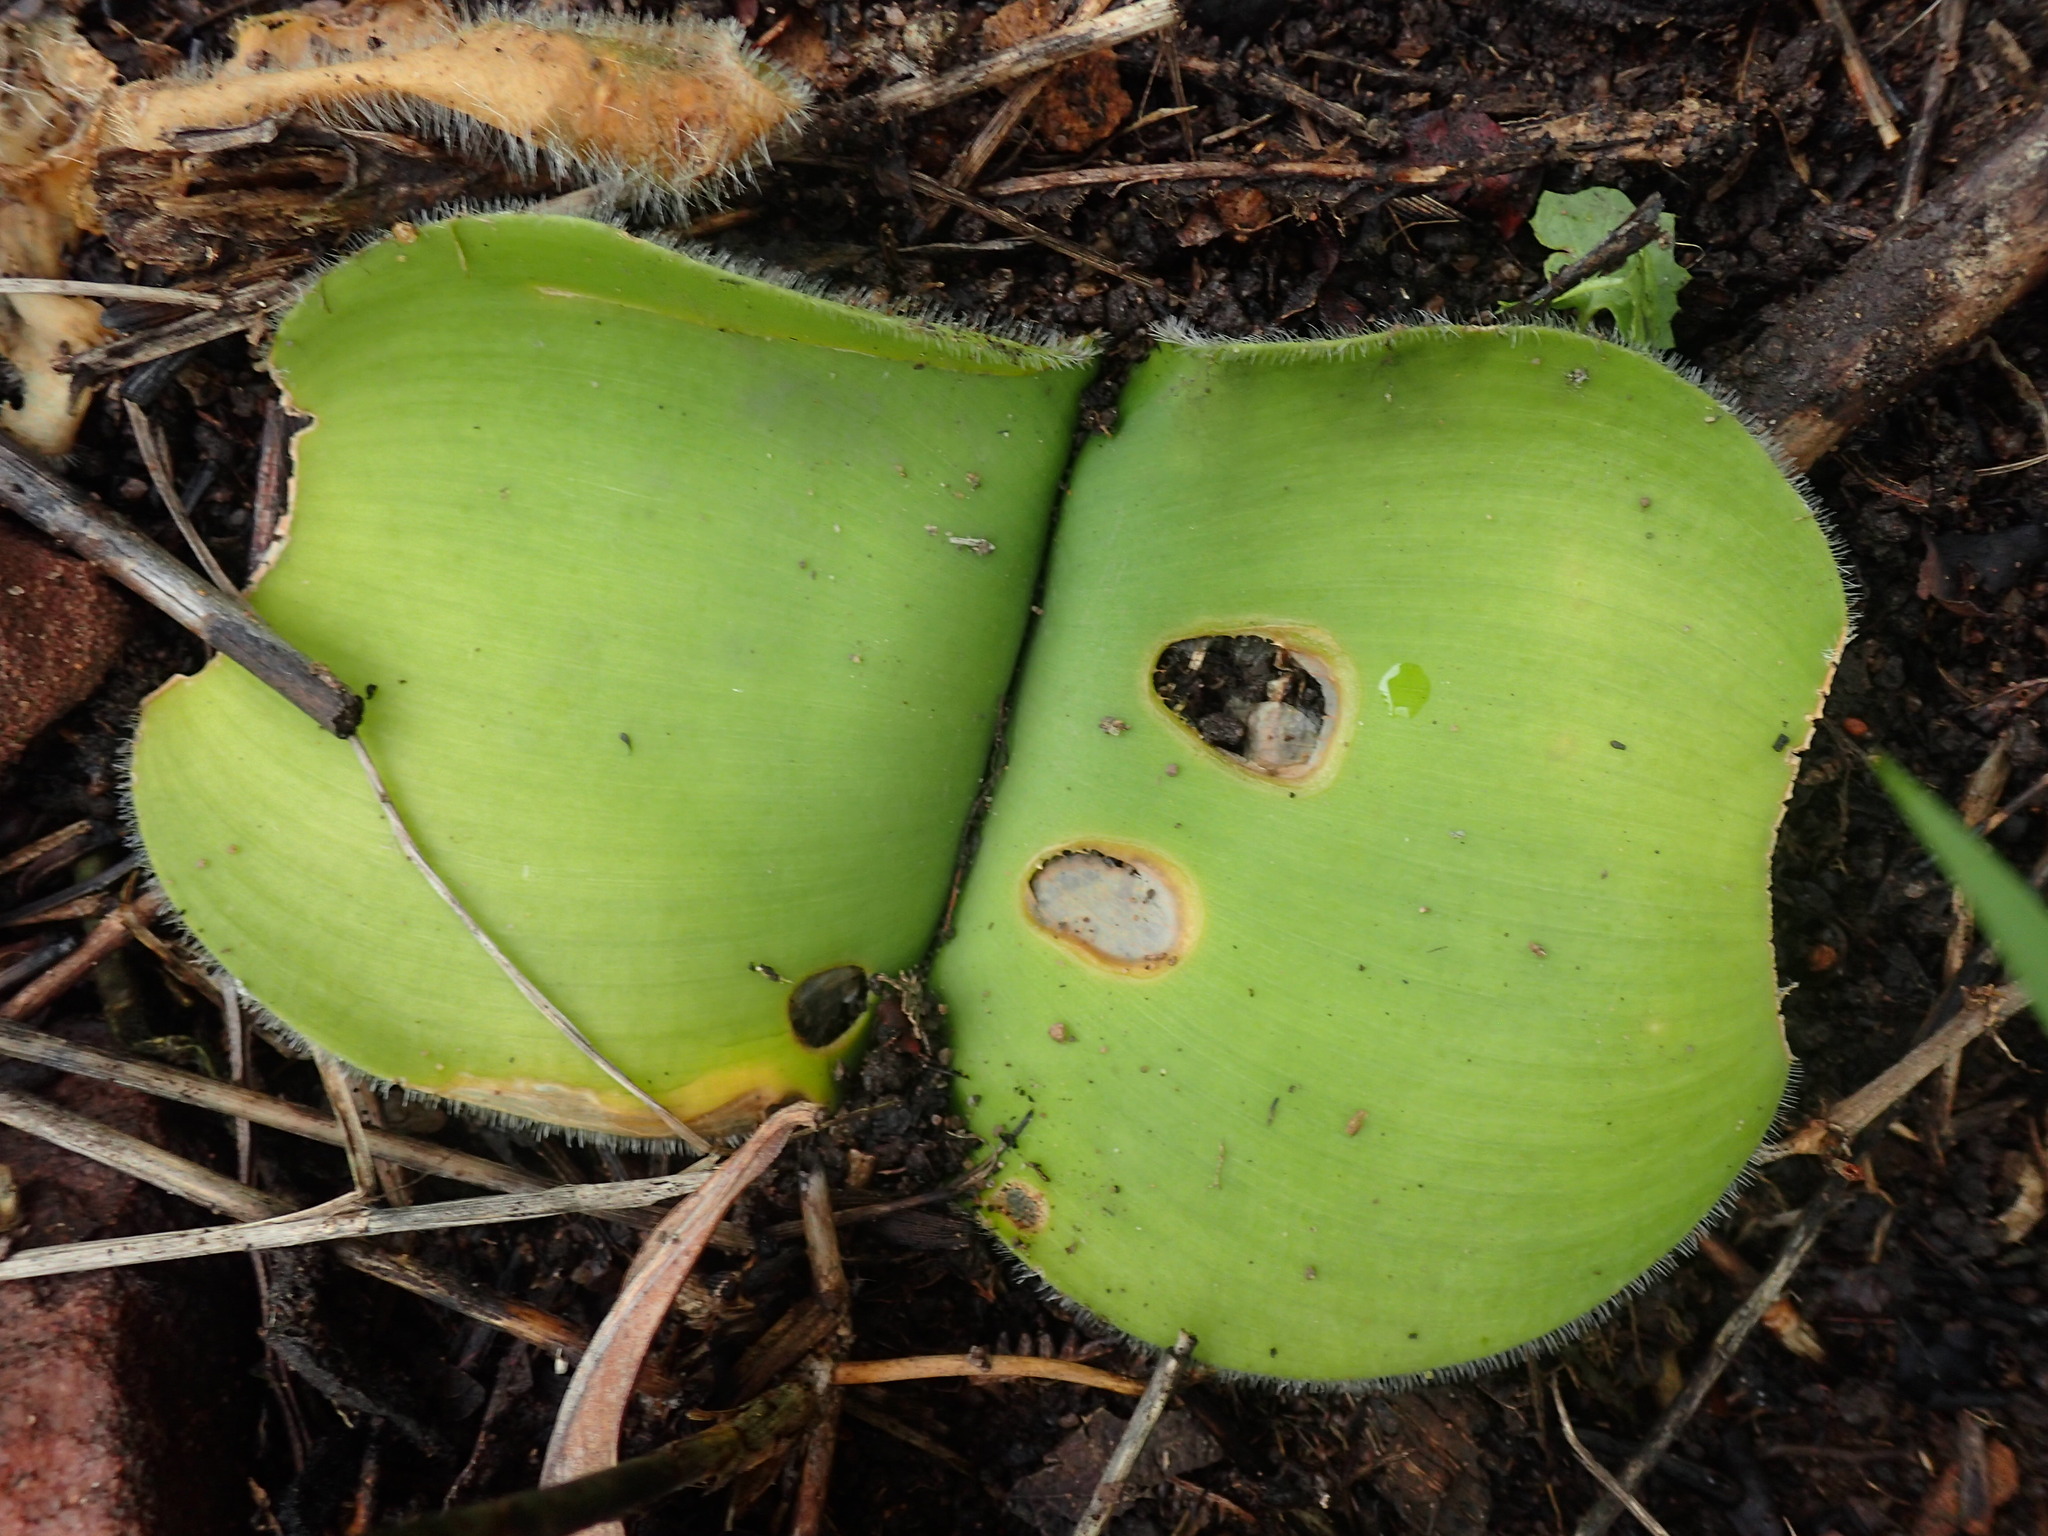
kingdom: Plantae
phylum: Tracheophyta
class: Liliopsida
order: Asparagales
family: Amaryllidaceae
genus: Haemanthus
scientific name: Haemanthus deformis
